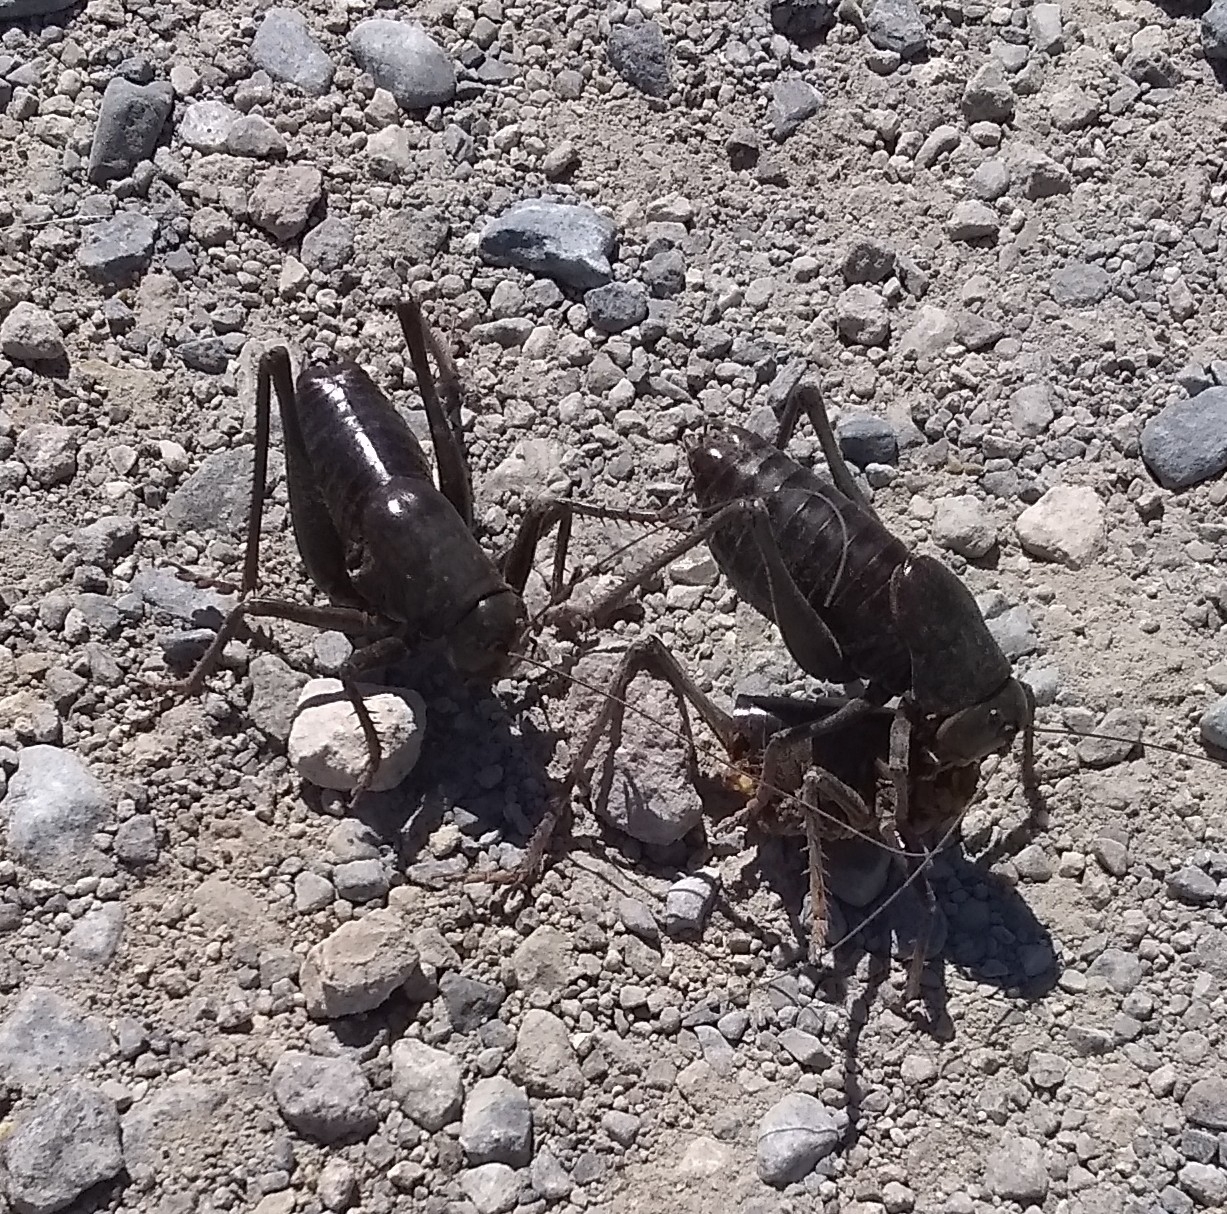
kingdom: Animalia
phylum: Arthropoda
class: Insecta
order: Orthoptera
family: Tettigoniidae
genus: Anabrus
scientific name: Anabrus simplex
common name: Mormon cricket
